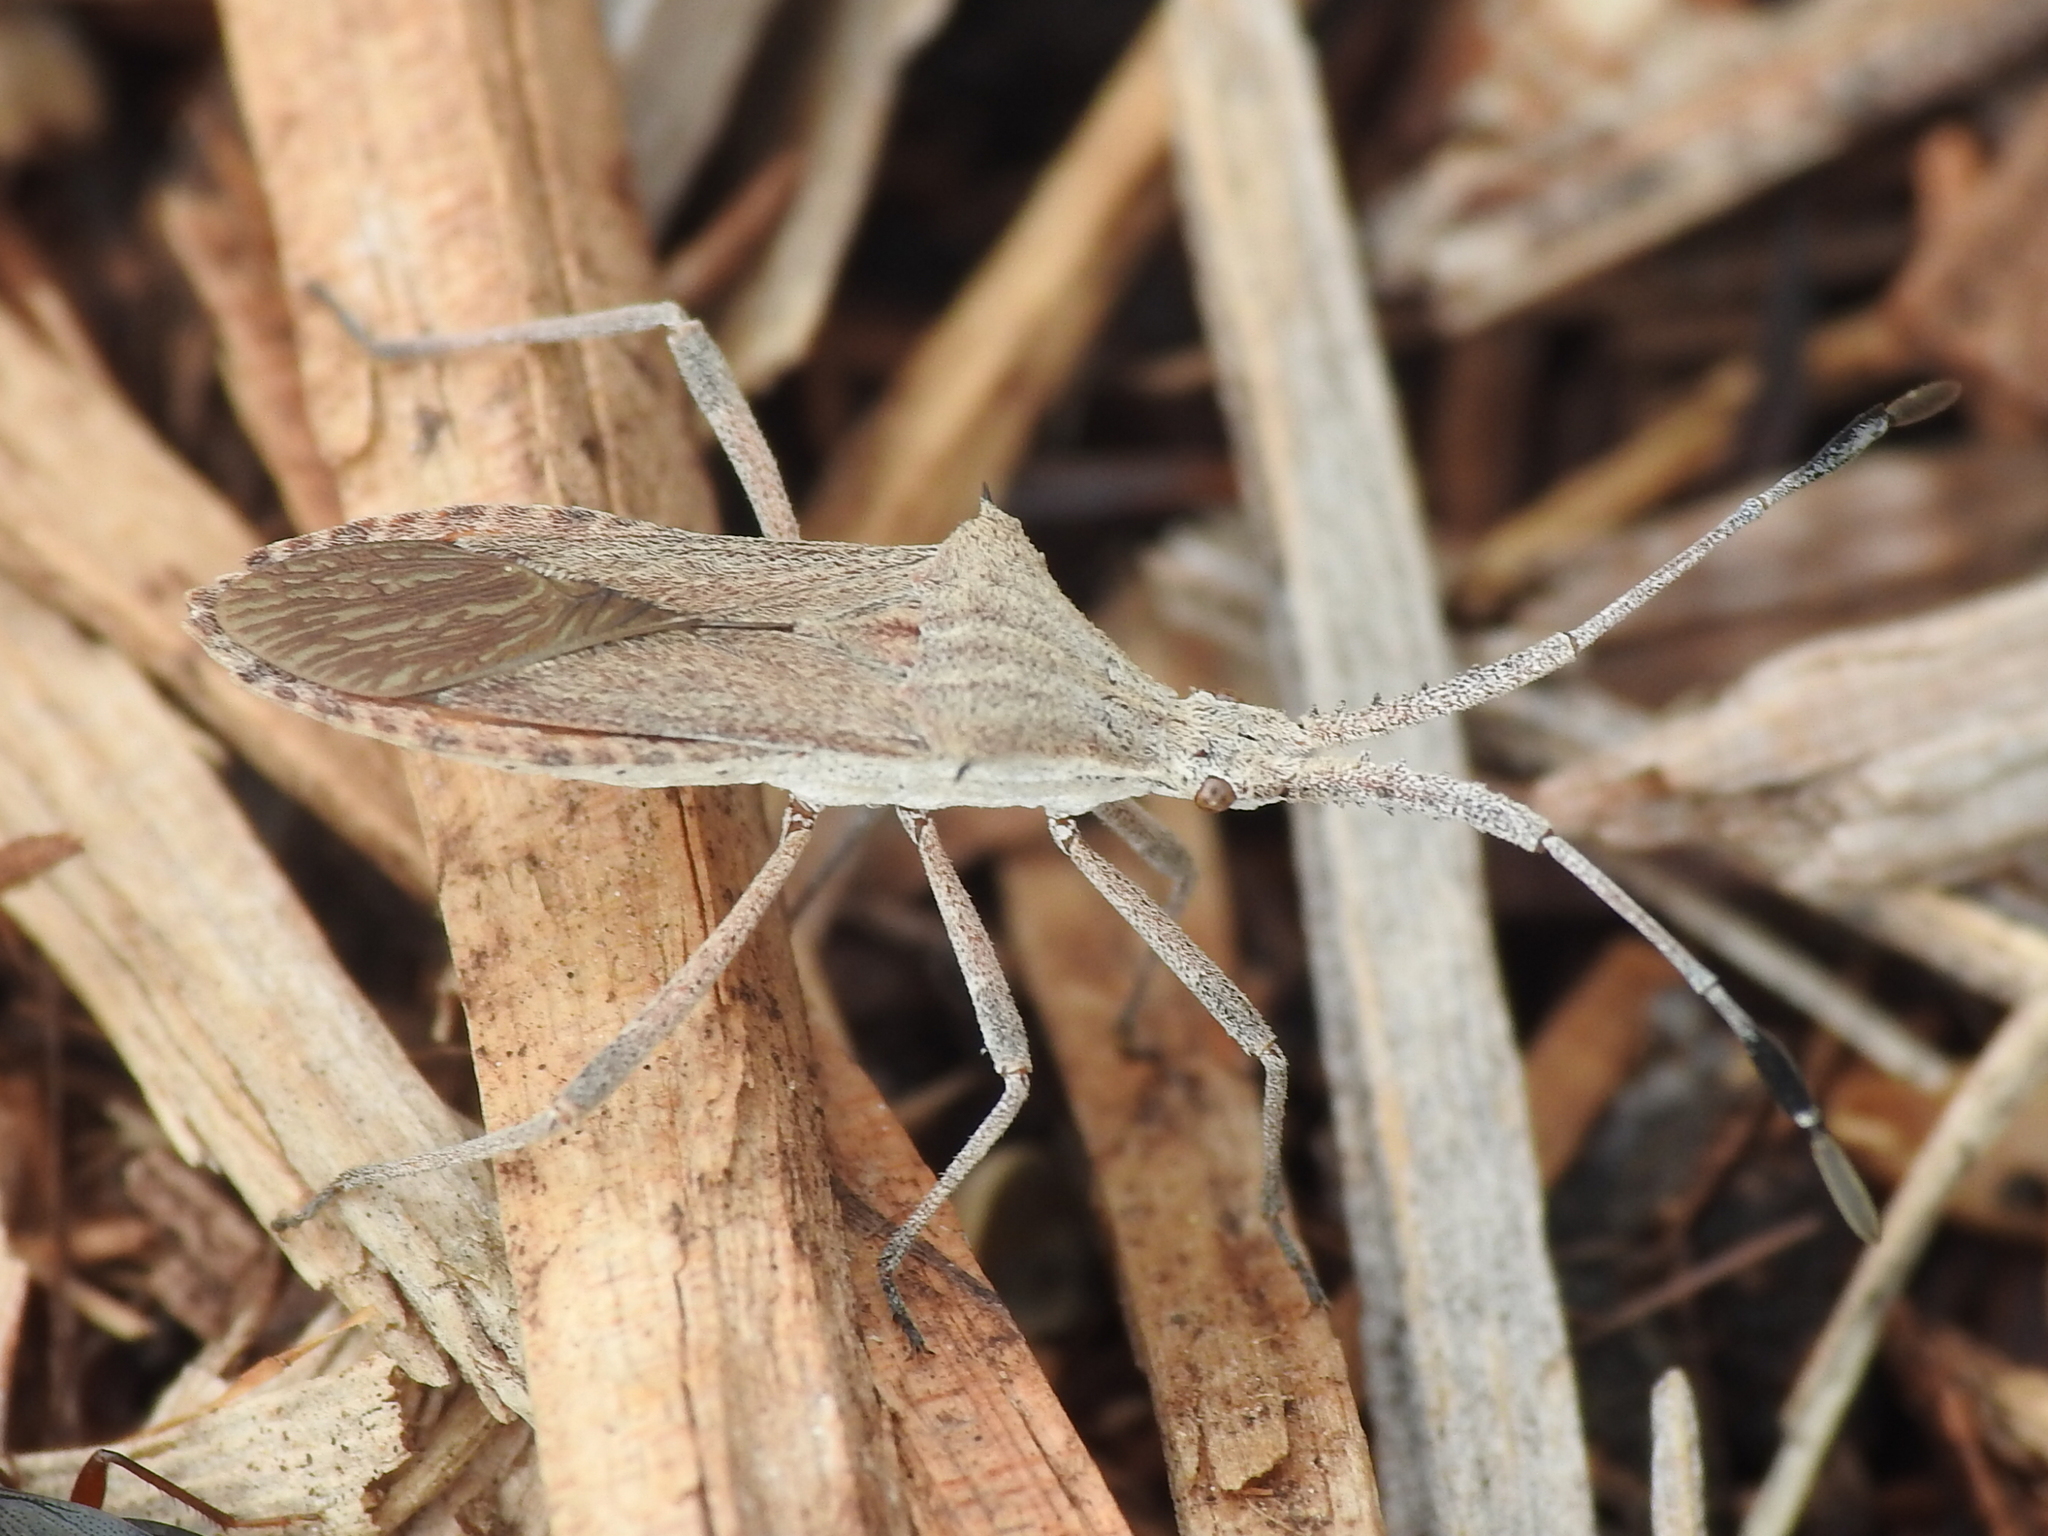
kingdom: Animalia
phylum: Arthropoda
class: Insecta
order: Hemiptera
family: Coreidae
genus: Chariesterus
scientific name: Chariesterus antennator
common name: Flat horned coreid
